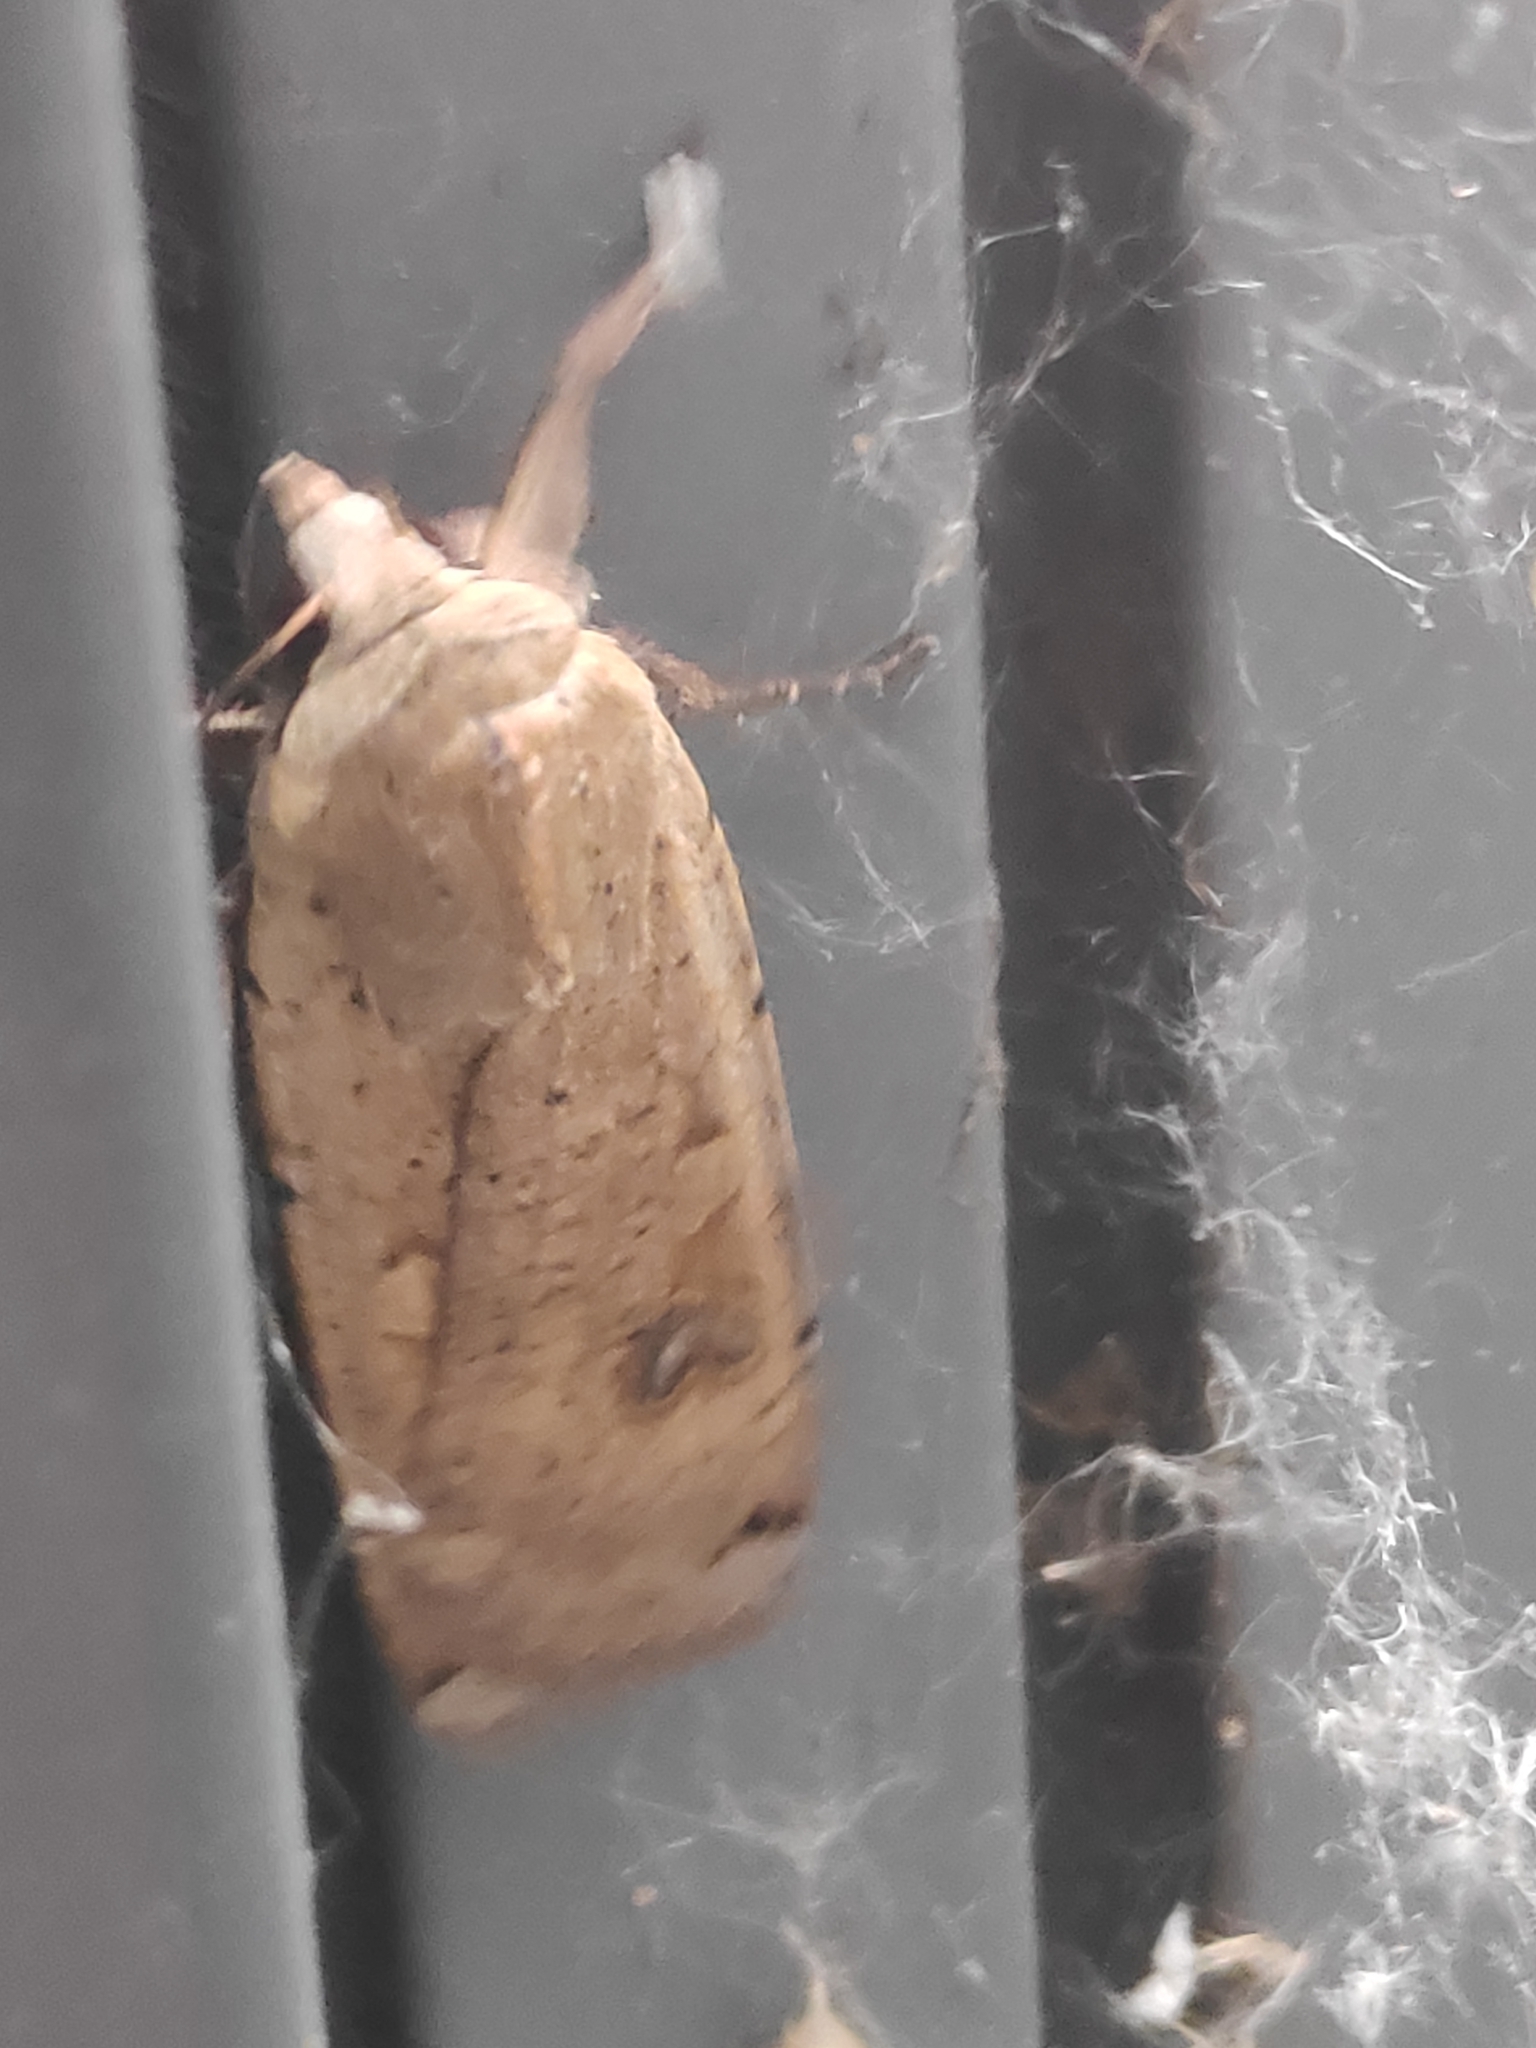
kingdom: Animalia
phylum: Arthropoda
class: Insecta
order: Lepidoptera
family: Noctuidae
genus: Noctua
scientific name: Noctua pronuba
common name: Large yellow underwing
